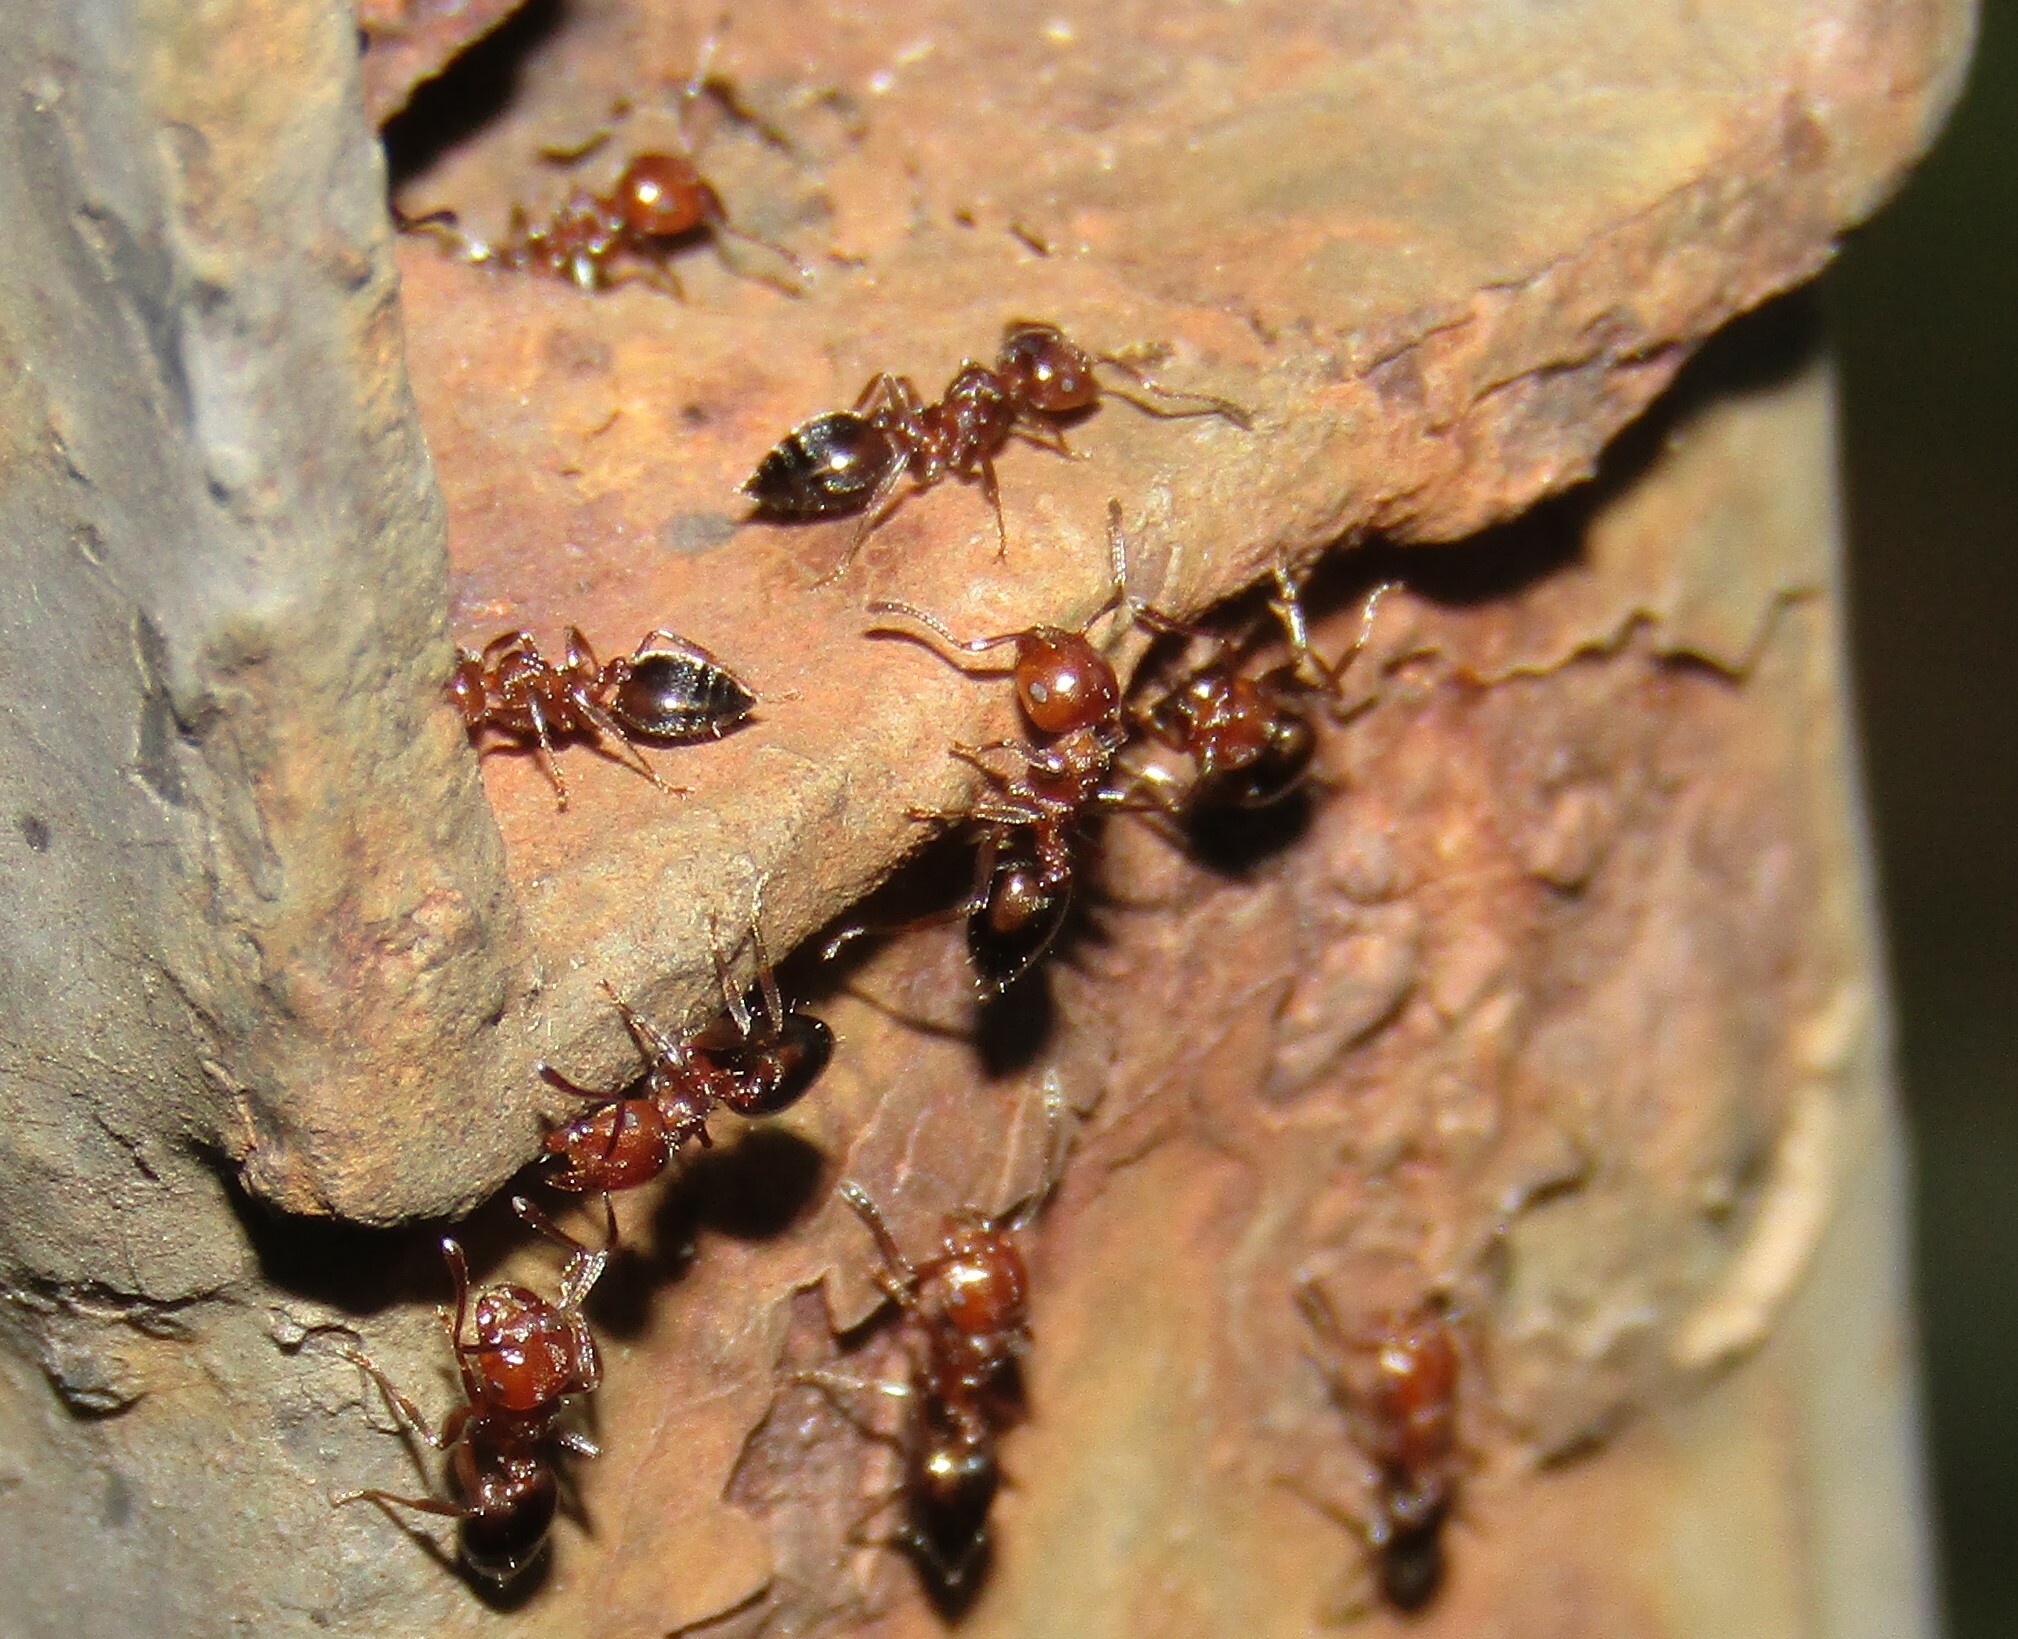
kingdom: Animalia
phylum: Arthropoda
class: Insecta
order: Hymenoptera
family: Formicidae
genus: Crematogaster
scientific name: Crematogaster schmidti
